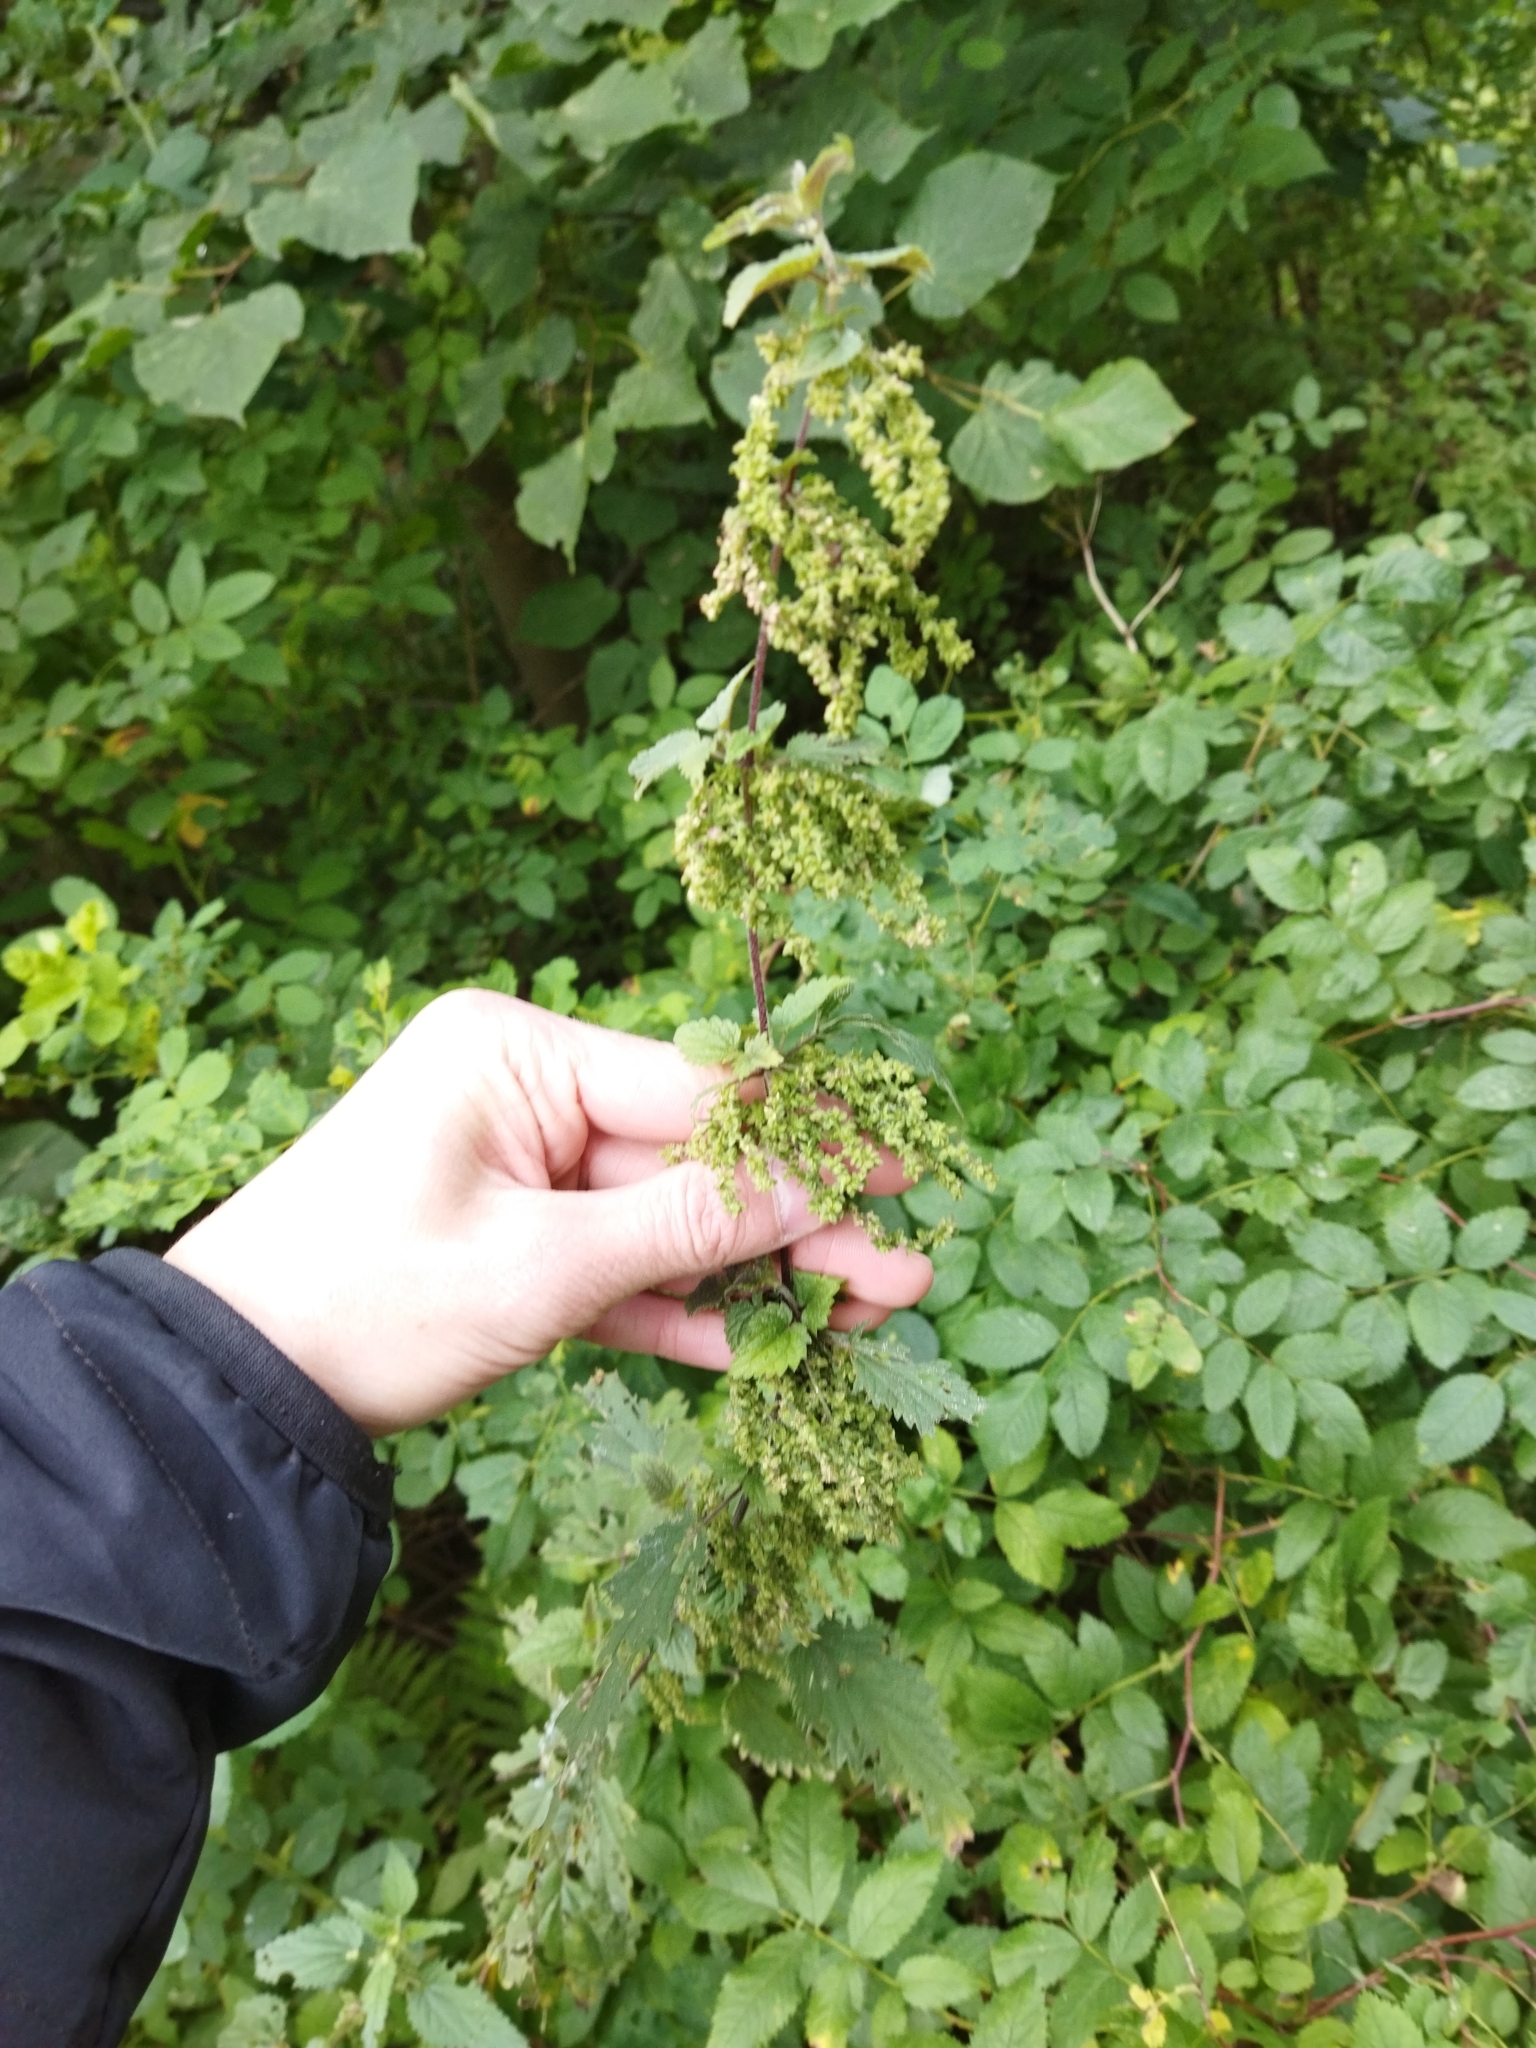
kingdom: Plantae
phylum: Tracheophyta
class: Magnoliopsida
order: Rosales
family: Urticaceae
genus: Urtica
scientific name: Urtica dioica
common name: Common nettle
